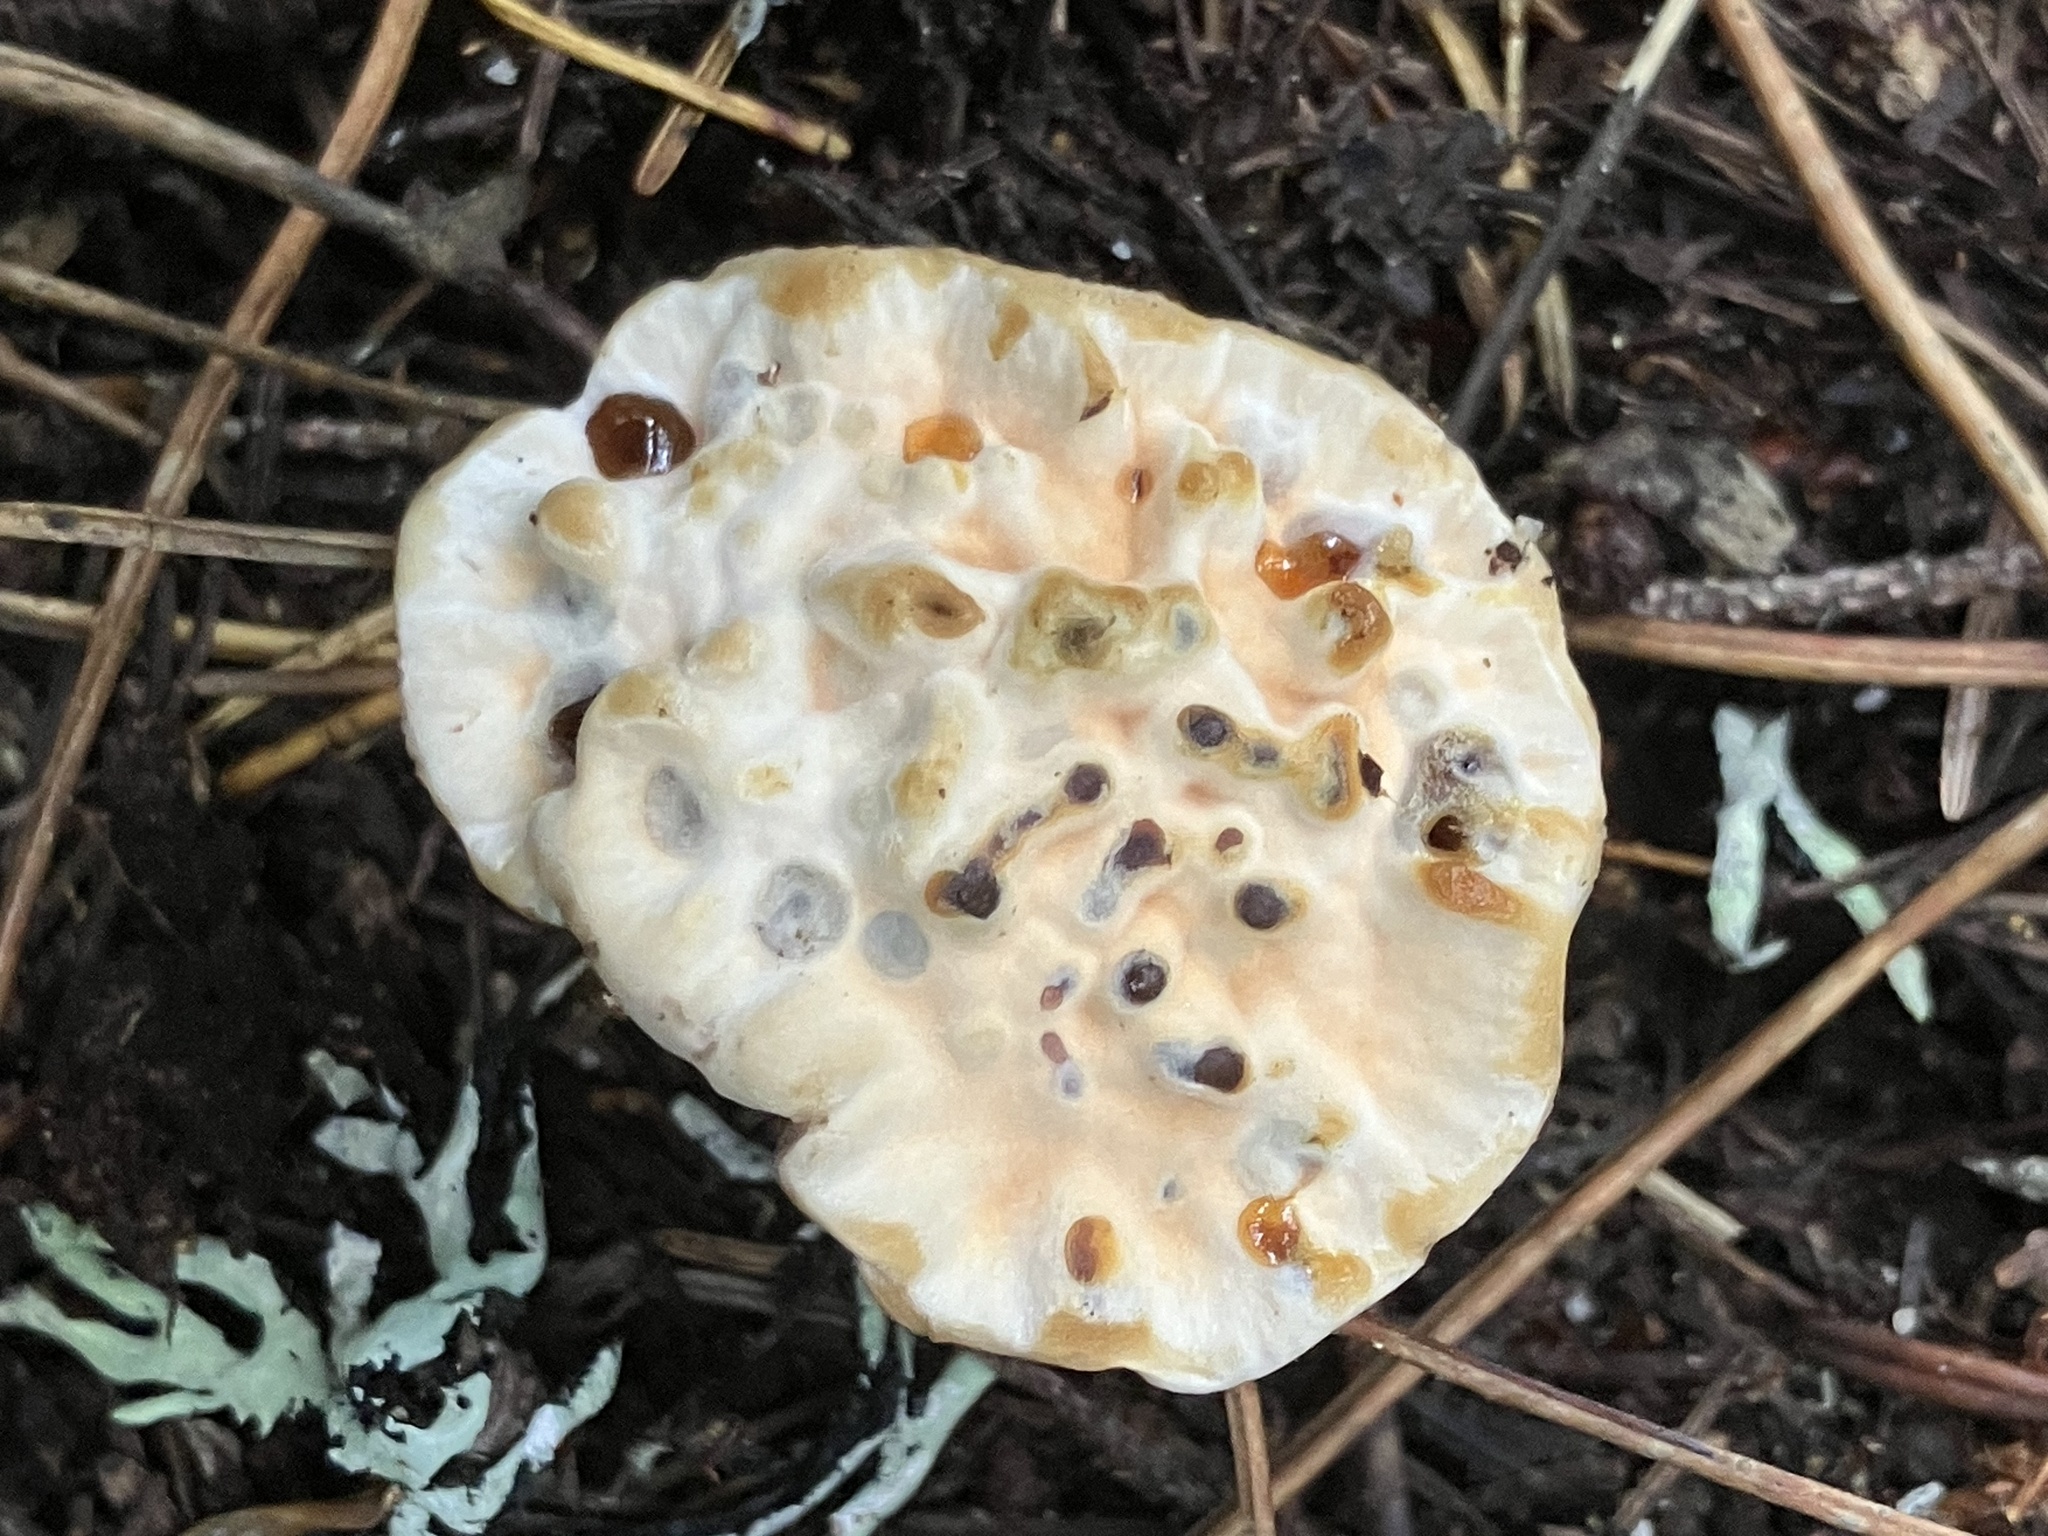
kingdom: Fungi
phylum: Basidiomycota
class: Agaricomycetes
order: Thelephorales
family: Bankeraceae
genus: Hydnellum
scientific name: Hydnellum aurantiacum
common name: Orange tooth
